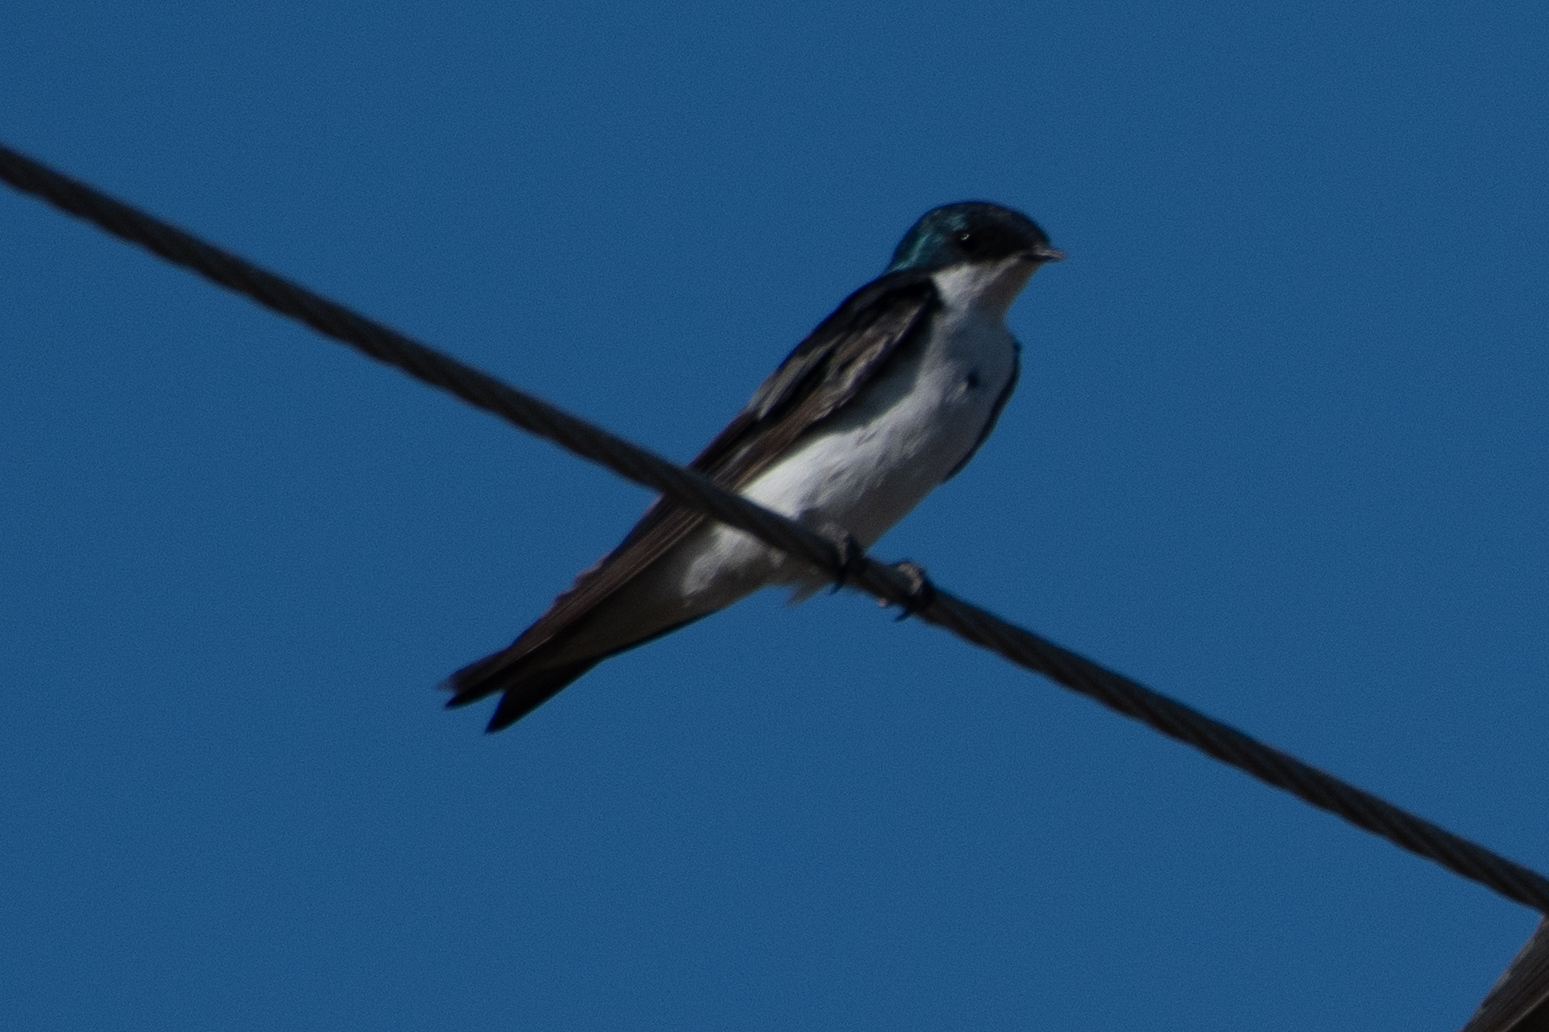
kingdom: Animalia
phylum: Chordata
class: Aves
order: Passeriformes
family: Hirundinidae
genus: Tachycineta
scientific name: Tachycineta bicolor
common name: Tree swallow
